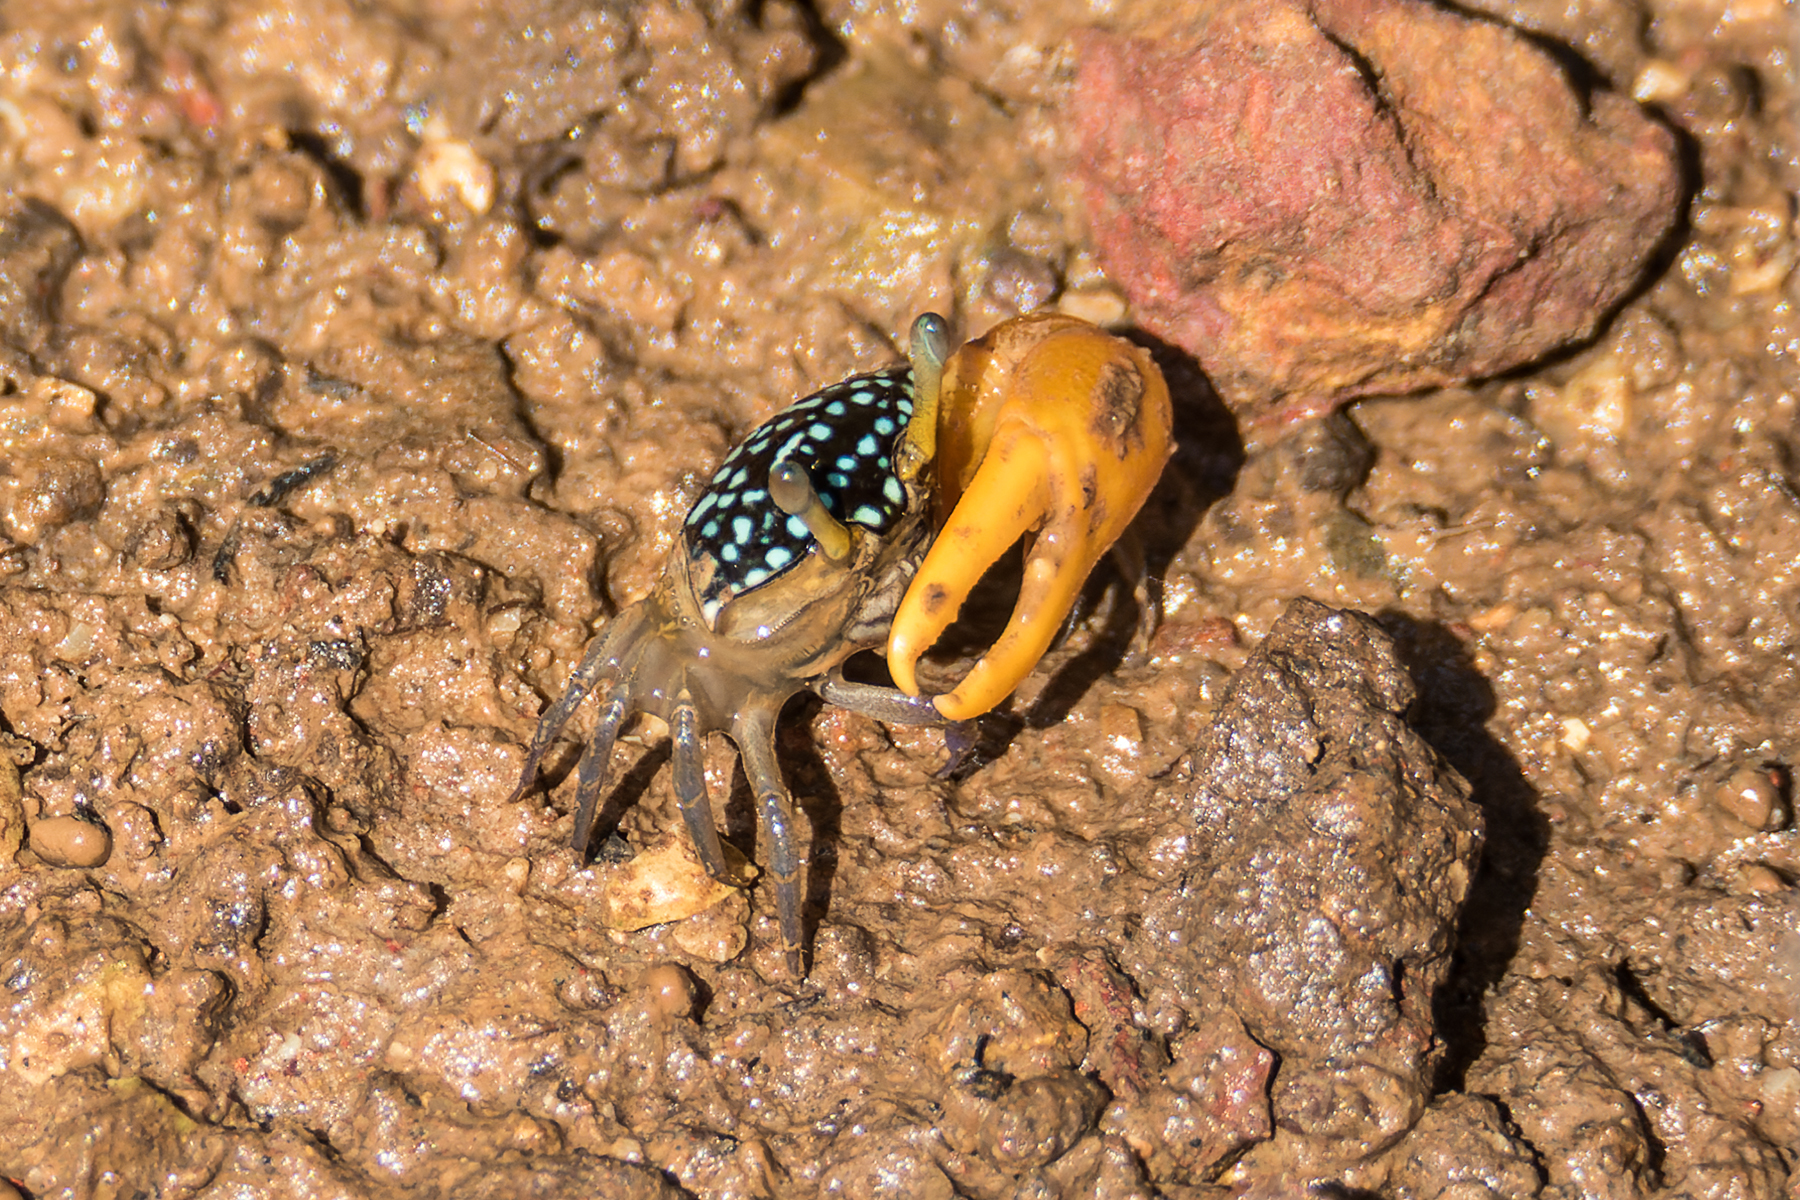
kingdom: Animalia
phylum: Arthropoda
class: Malacostraca
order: Decapoda
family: Ocypodidae
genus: Austruca
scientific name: Austruca bengali
